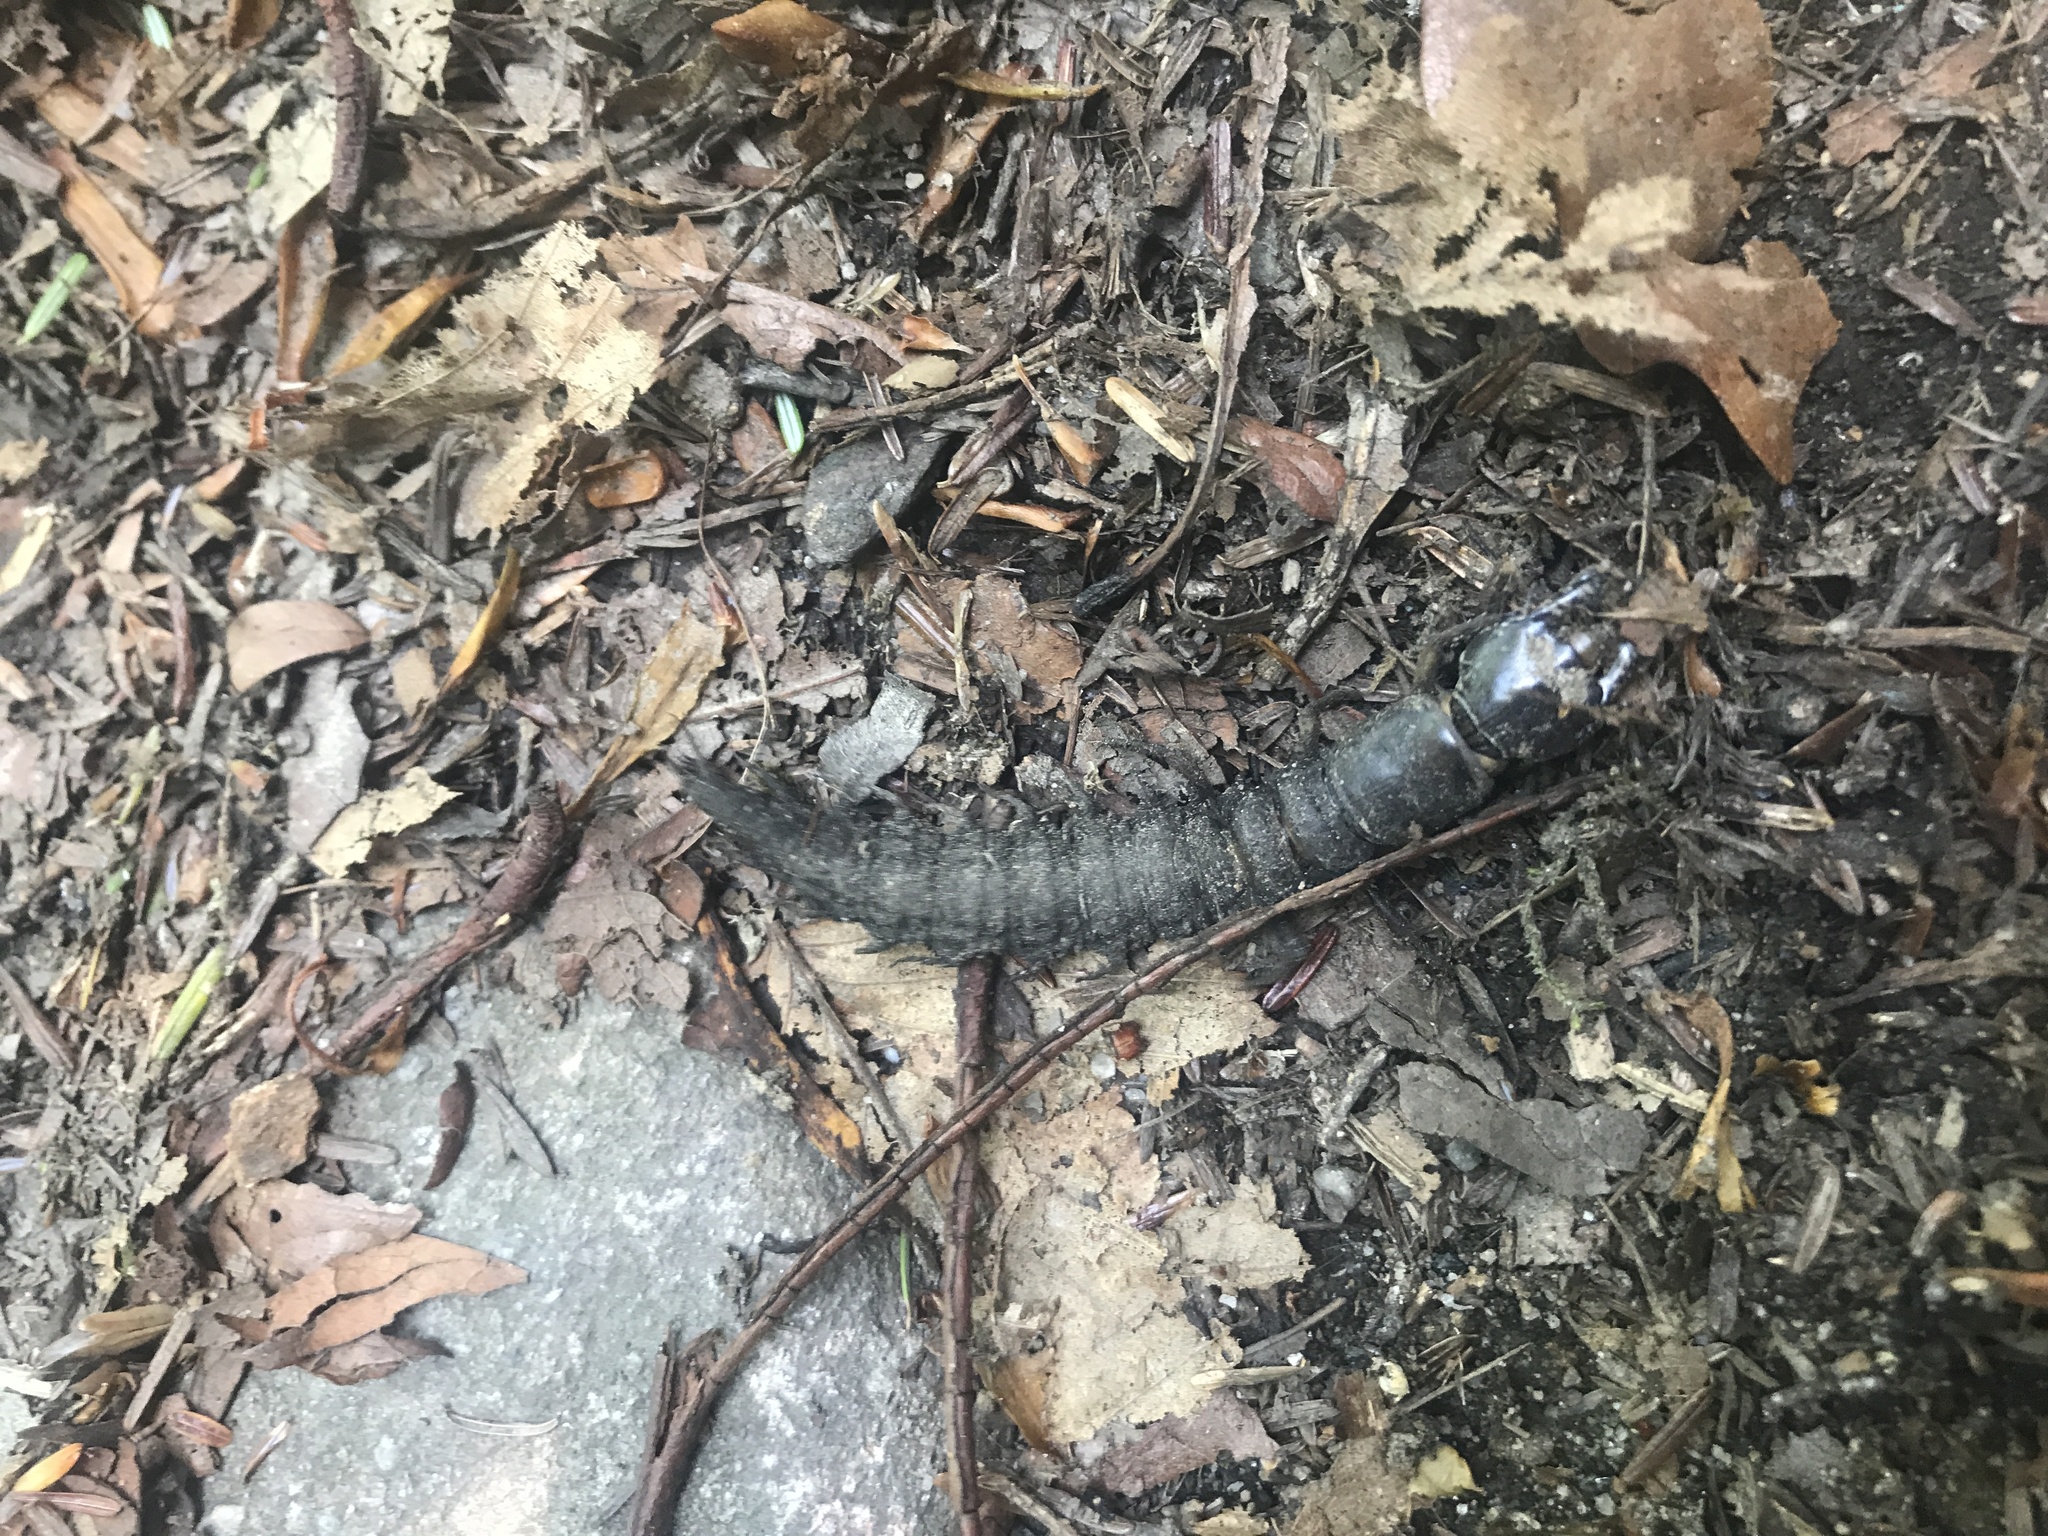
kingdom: Animalia
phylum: Arthropoda
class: Insecta
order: Megaloptera
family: Corydalidae
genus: Corydalus
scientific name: Corydalus cornutus
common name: Dobsonfly
